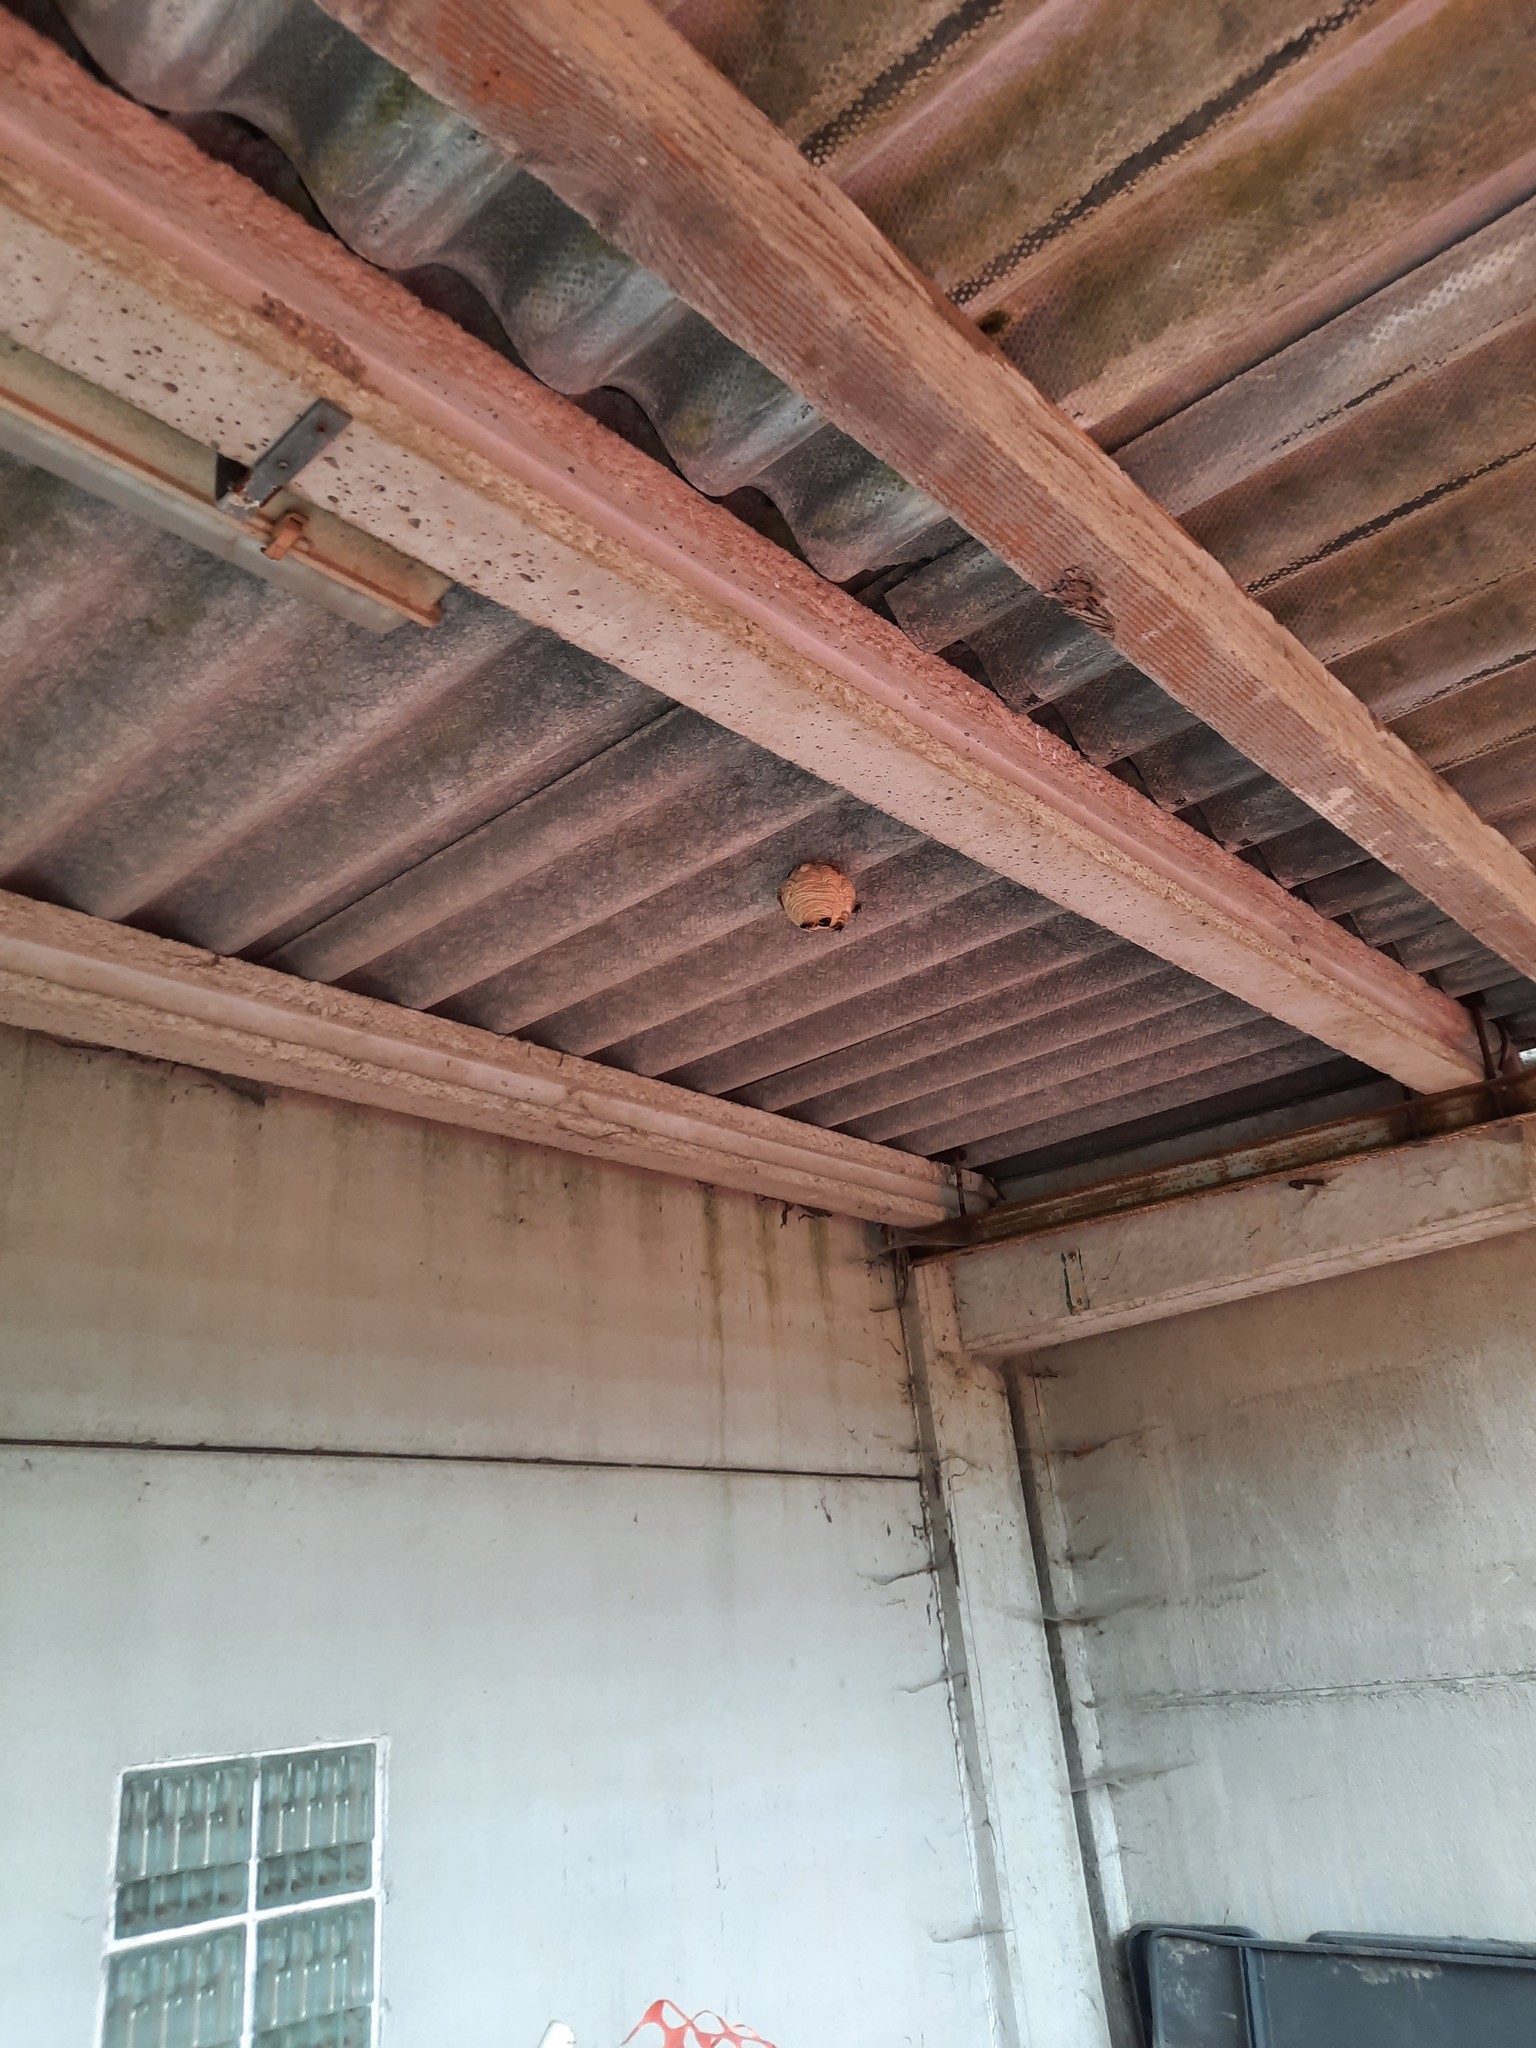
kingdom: Animalia
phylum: Arthropoda
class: Insecta
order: Hymenoptera
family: Vespidae
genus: Vespa
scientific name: Vespa velutina
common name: Asian hornet
